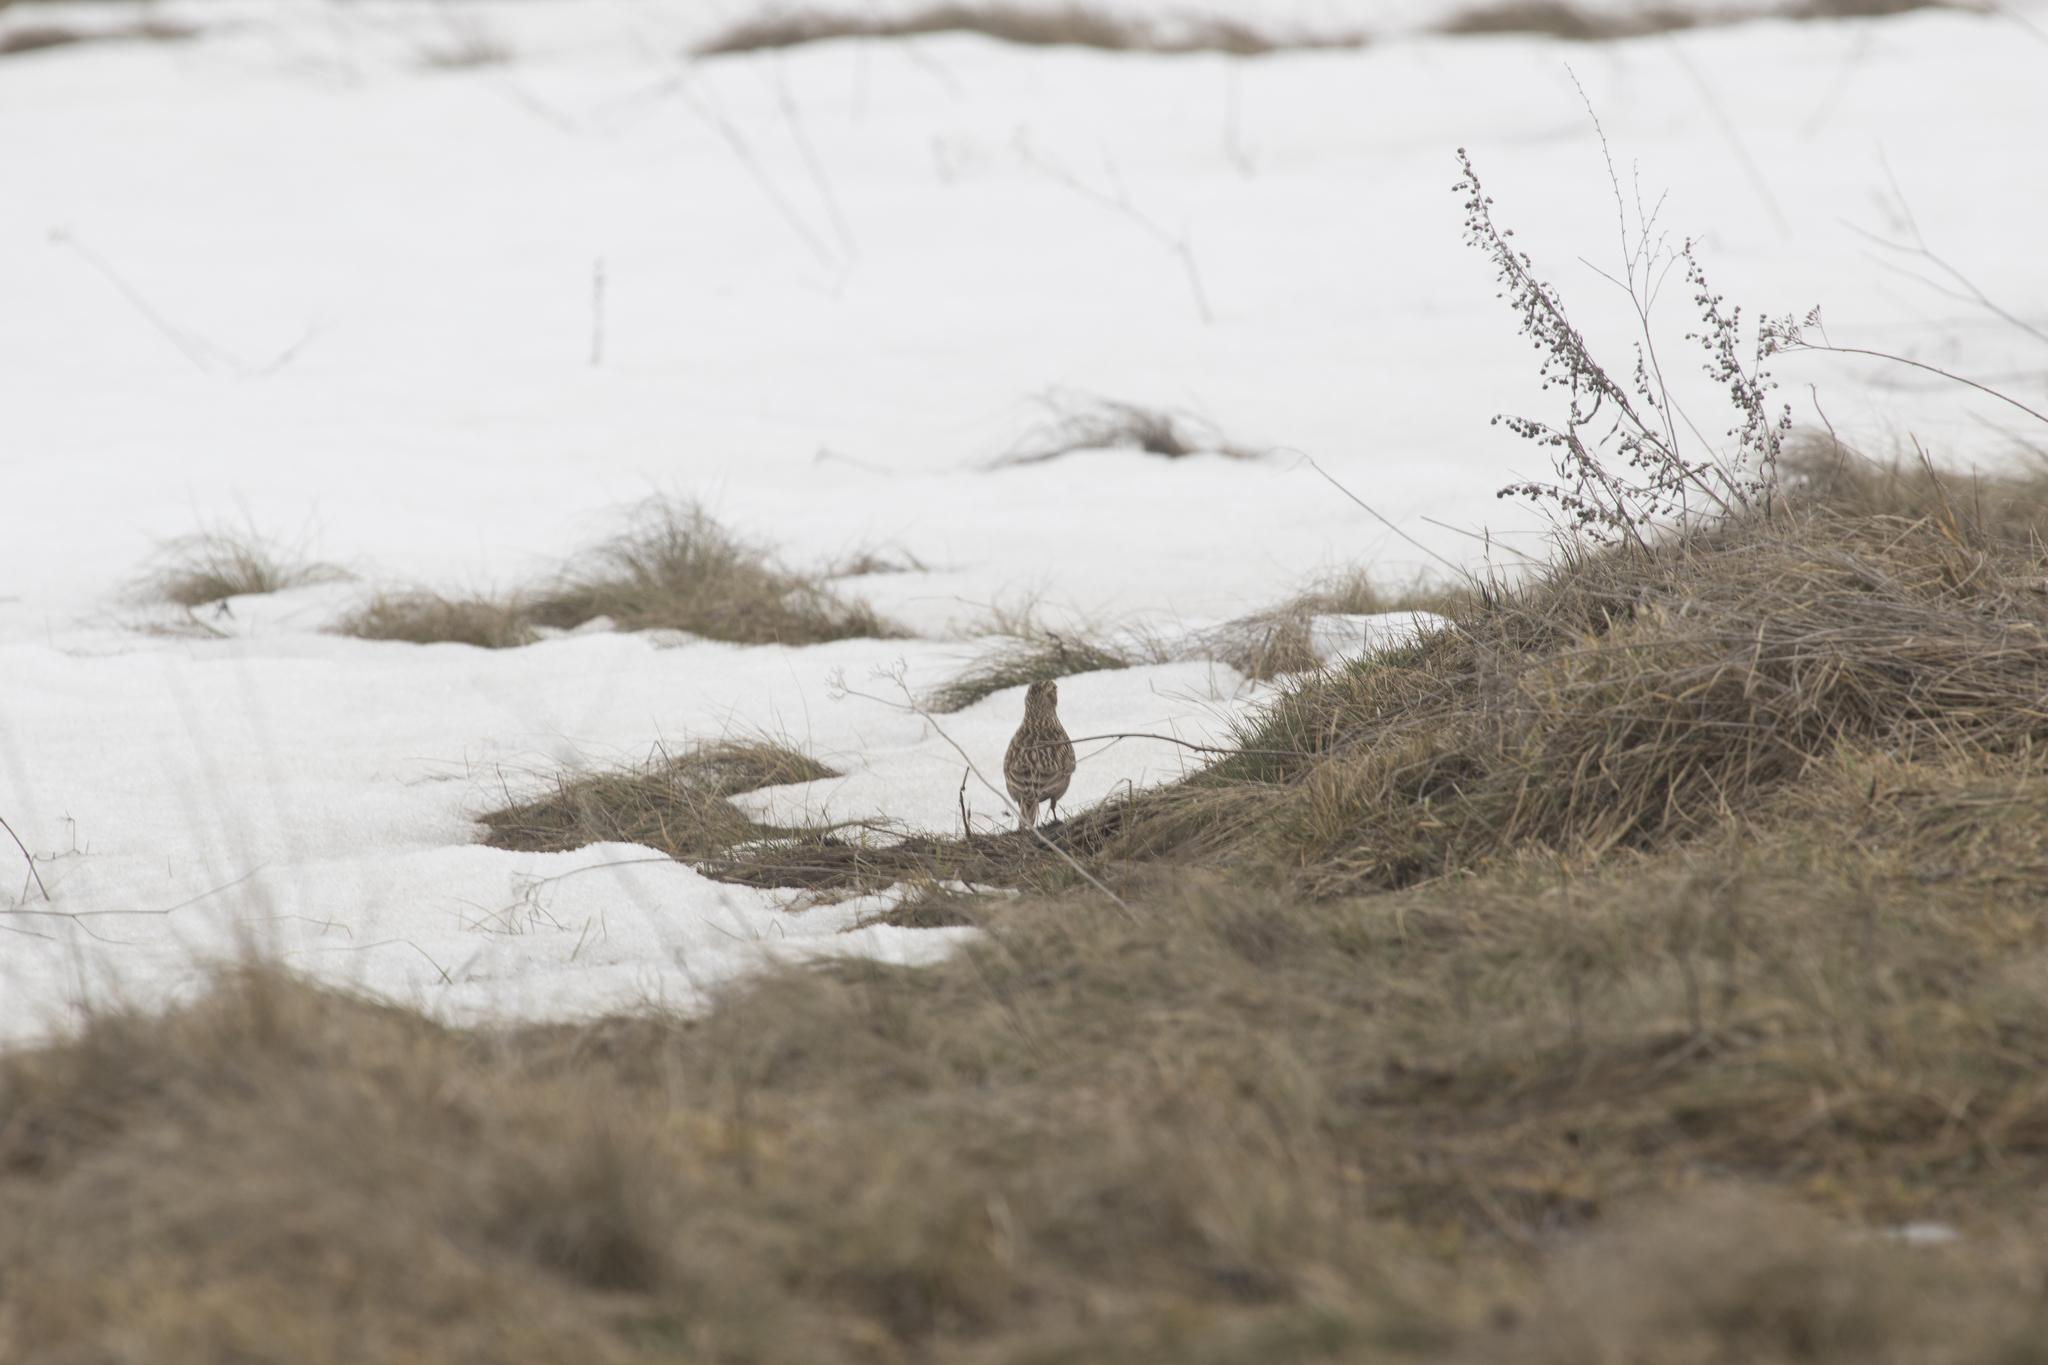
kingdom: Animalia
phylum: Chordata
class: Aves
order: Passeriformes
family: Alaudidae
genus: Alauda
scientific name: Alauda arvensis
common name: Eurasian skylark
